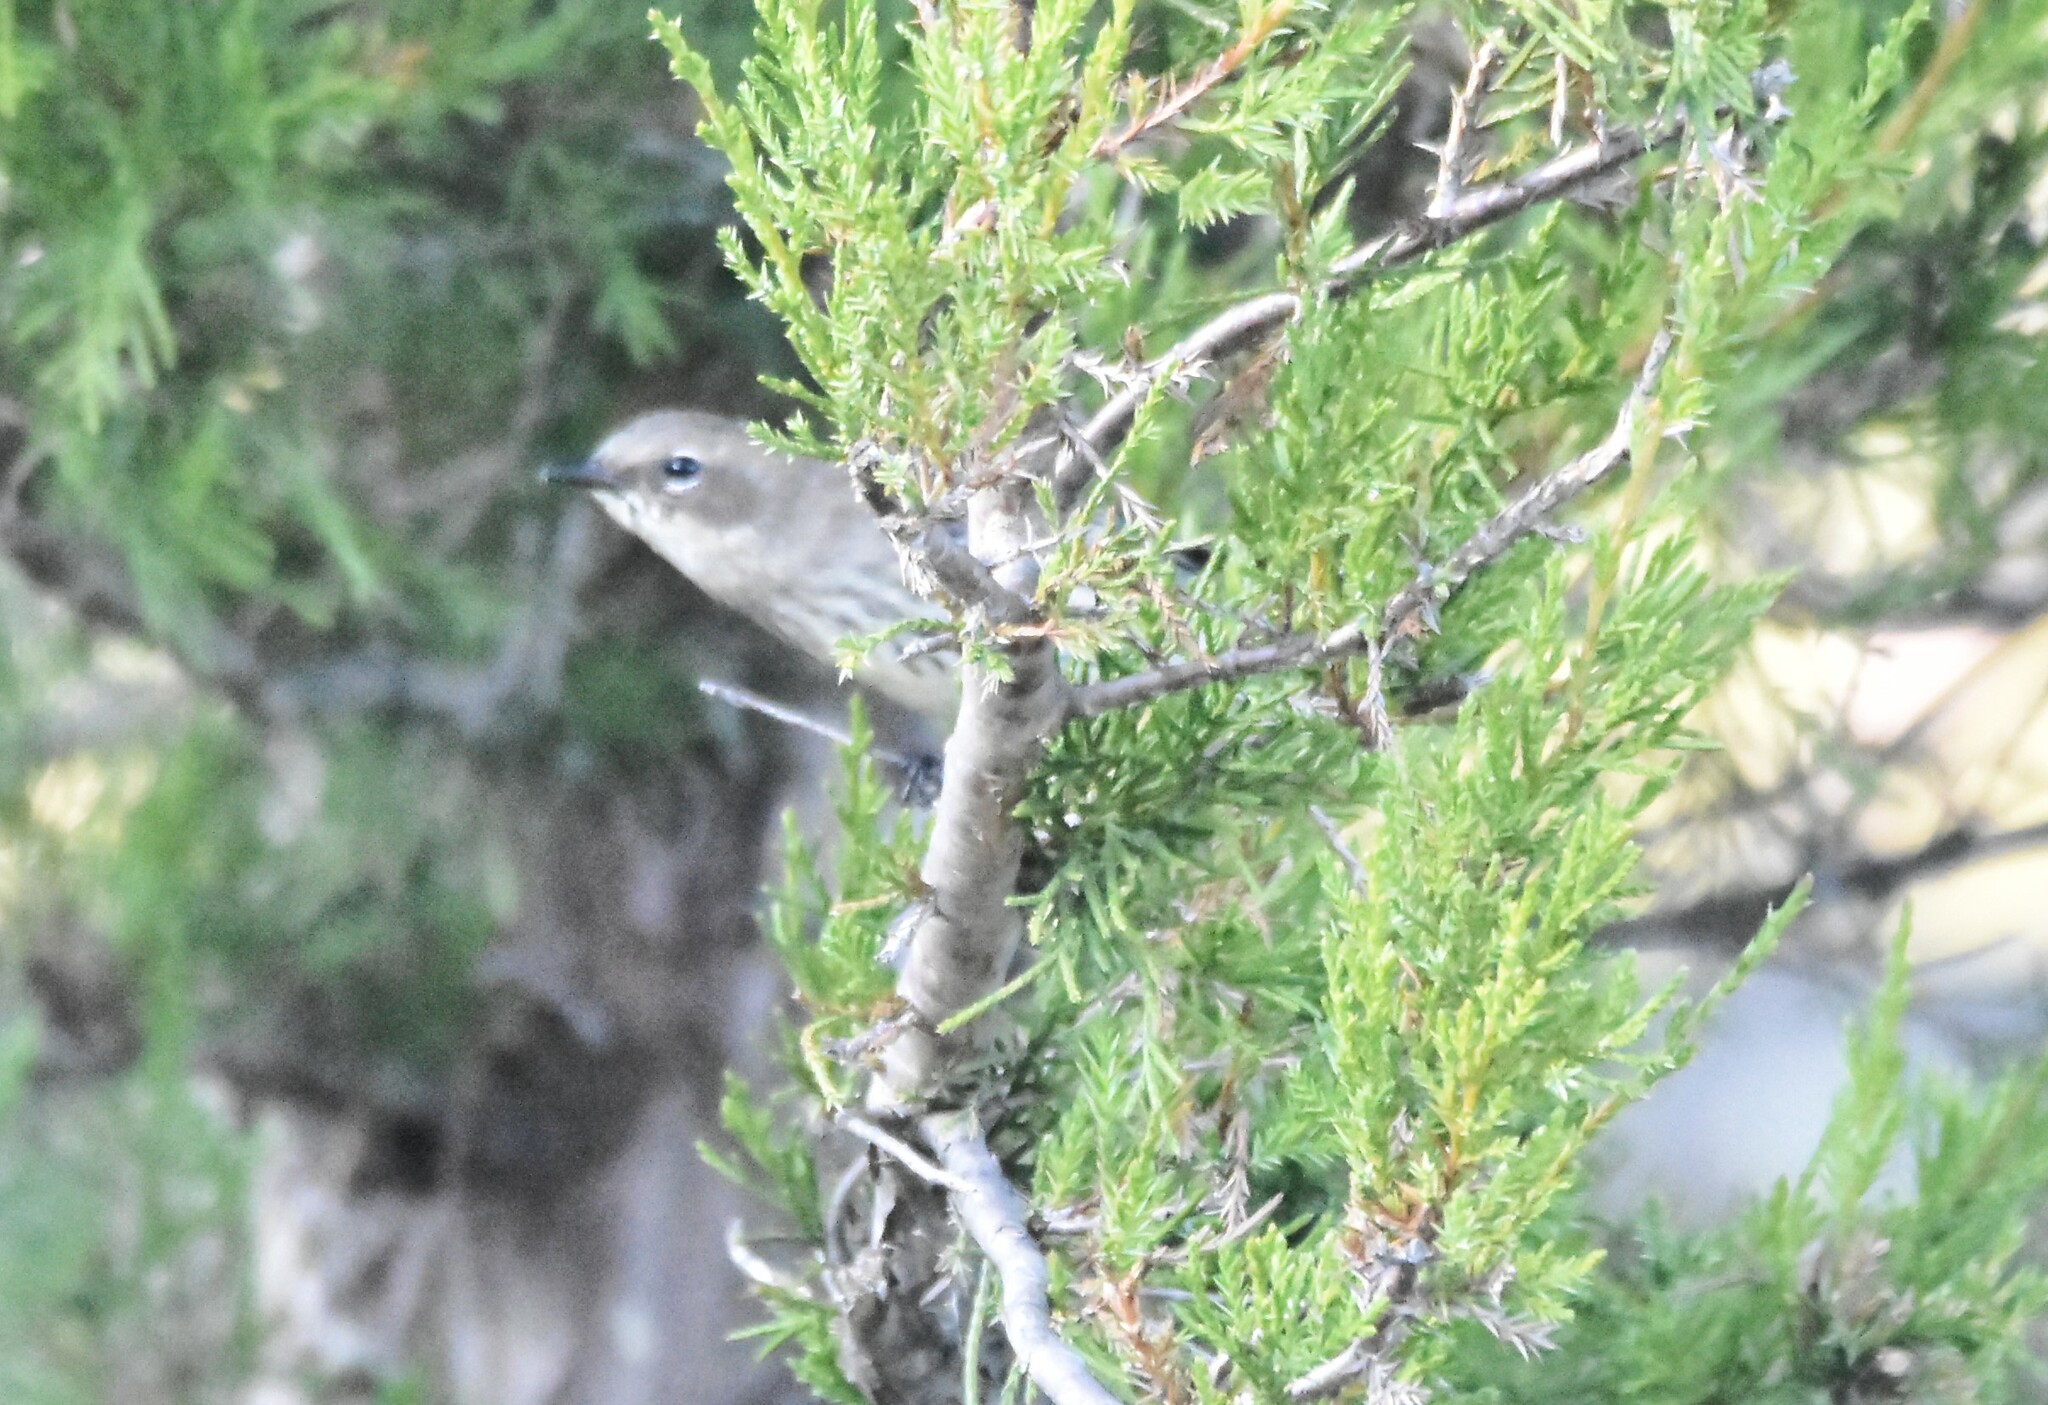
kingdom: Animalia
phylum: Chordata
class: Aves
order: Passeriformes
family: Parulidae
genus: Setophaga
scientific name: Setophaga coronata
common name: Myrtle warbler
